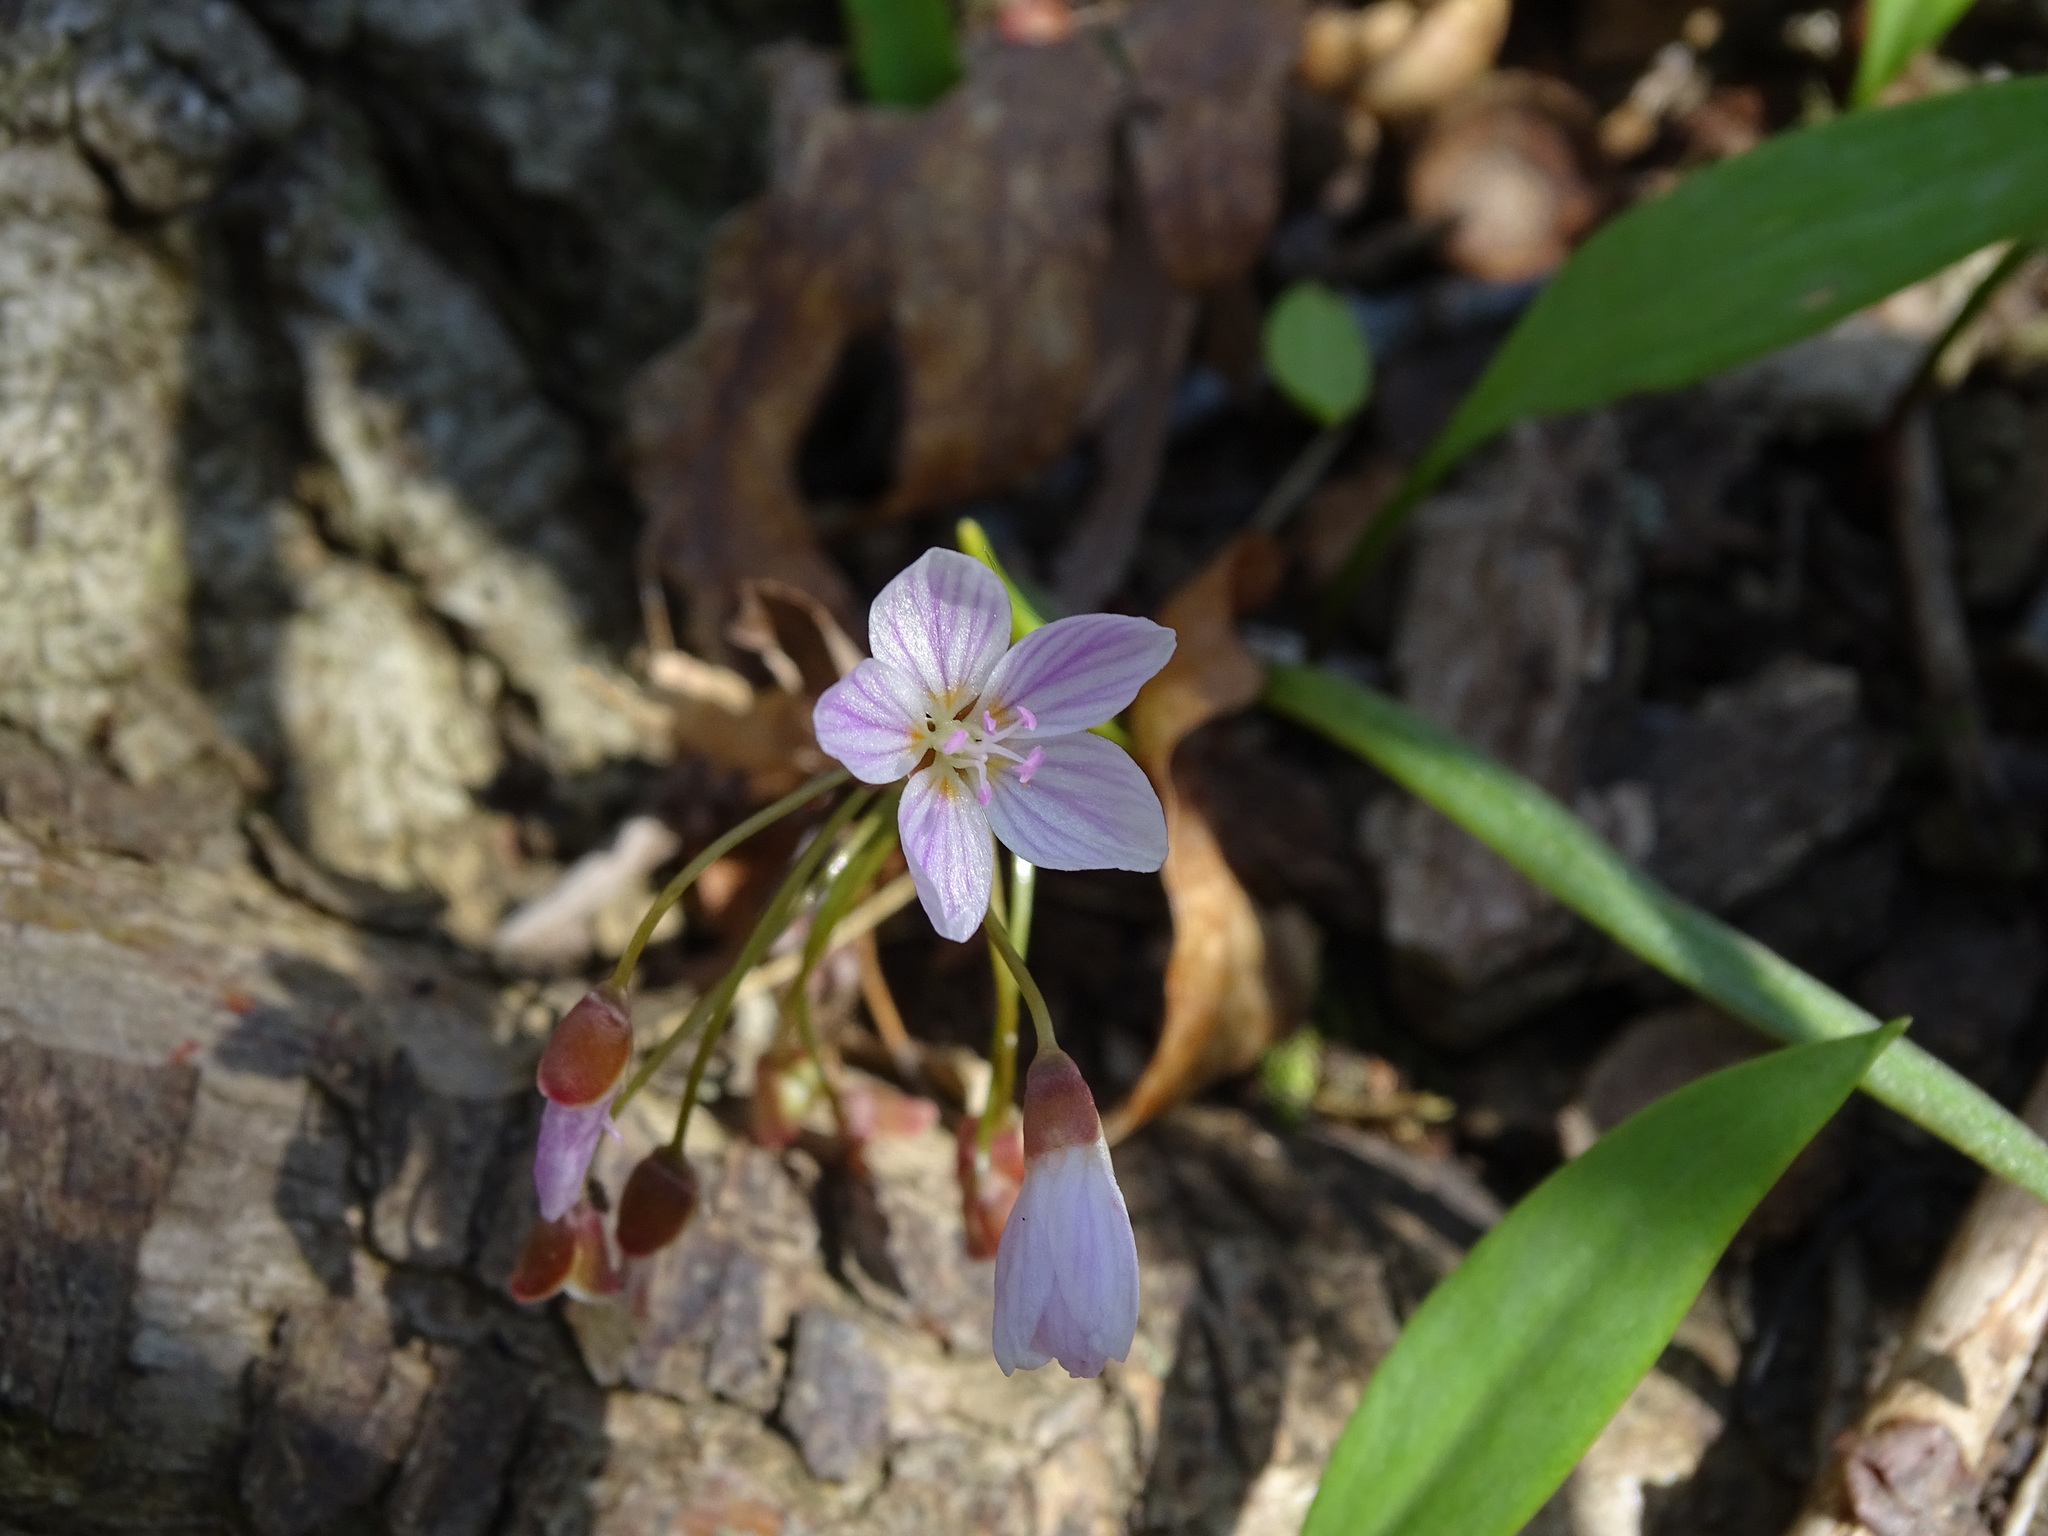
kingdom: Plantae
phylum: Tracheophyta
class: Magnoliopsida
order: Caryophyllales
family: Montiaceae
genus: Claytonia
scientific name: Claytonia virginica
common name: Virginia springbeauty
